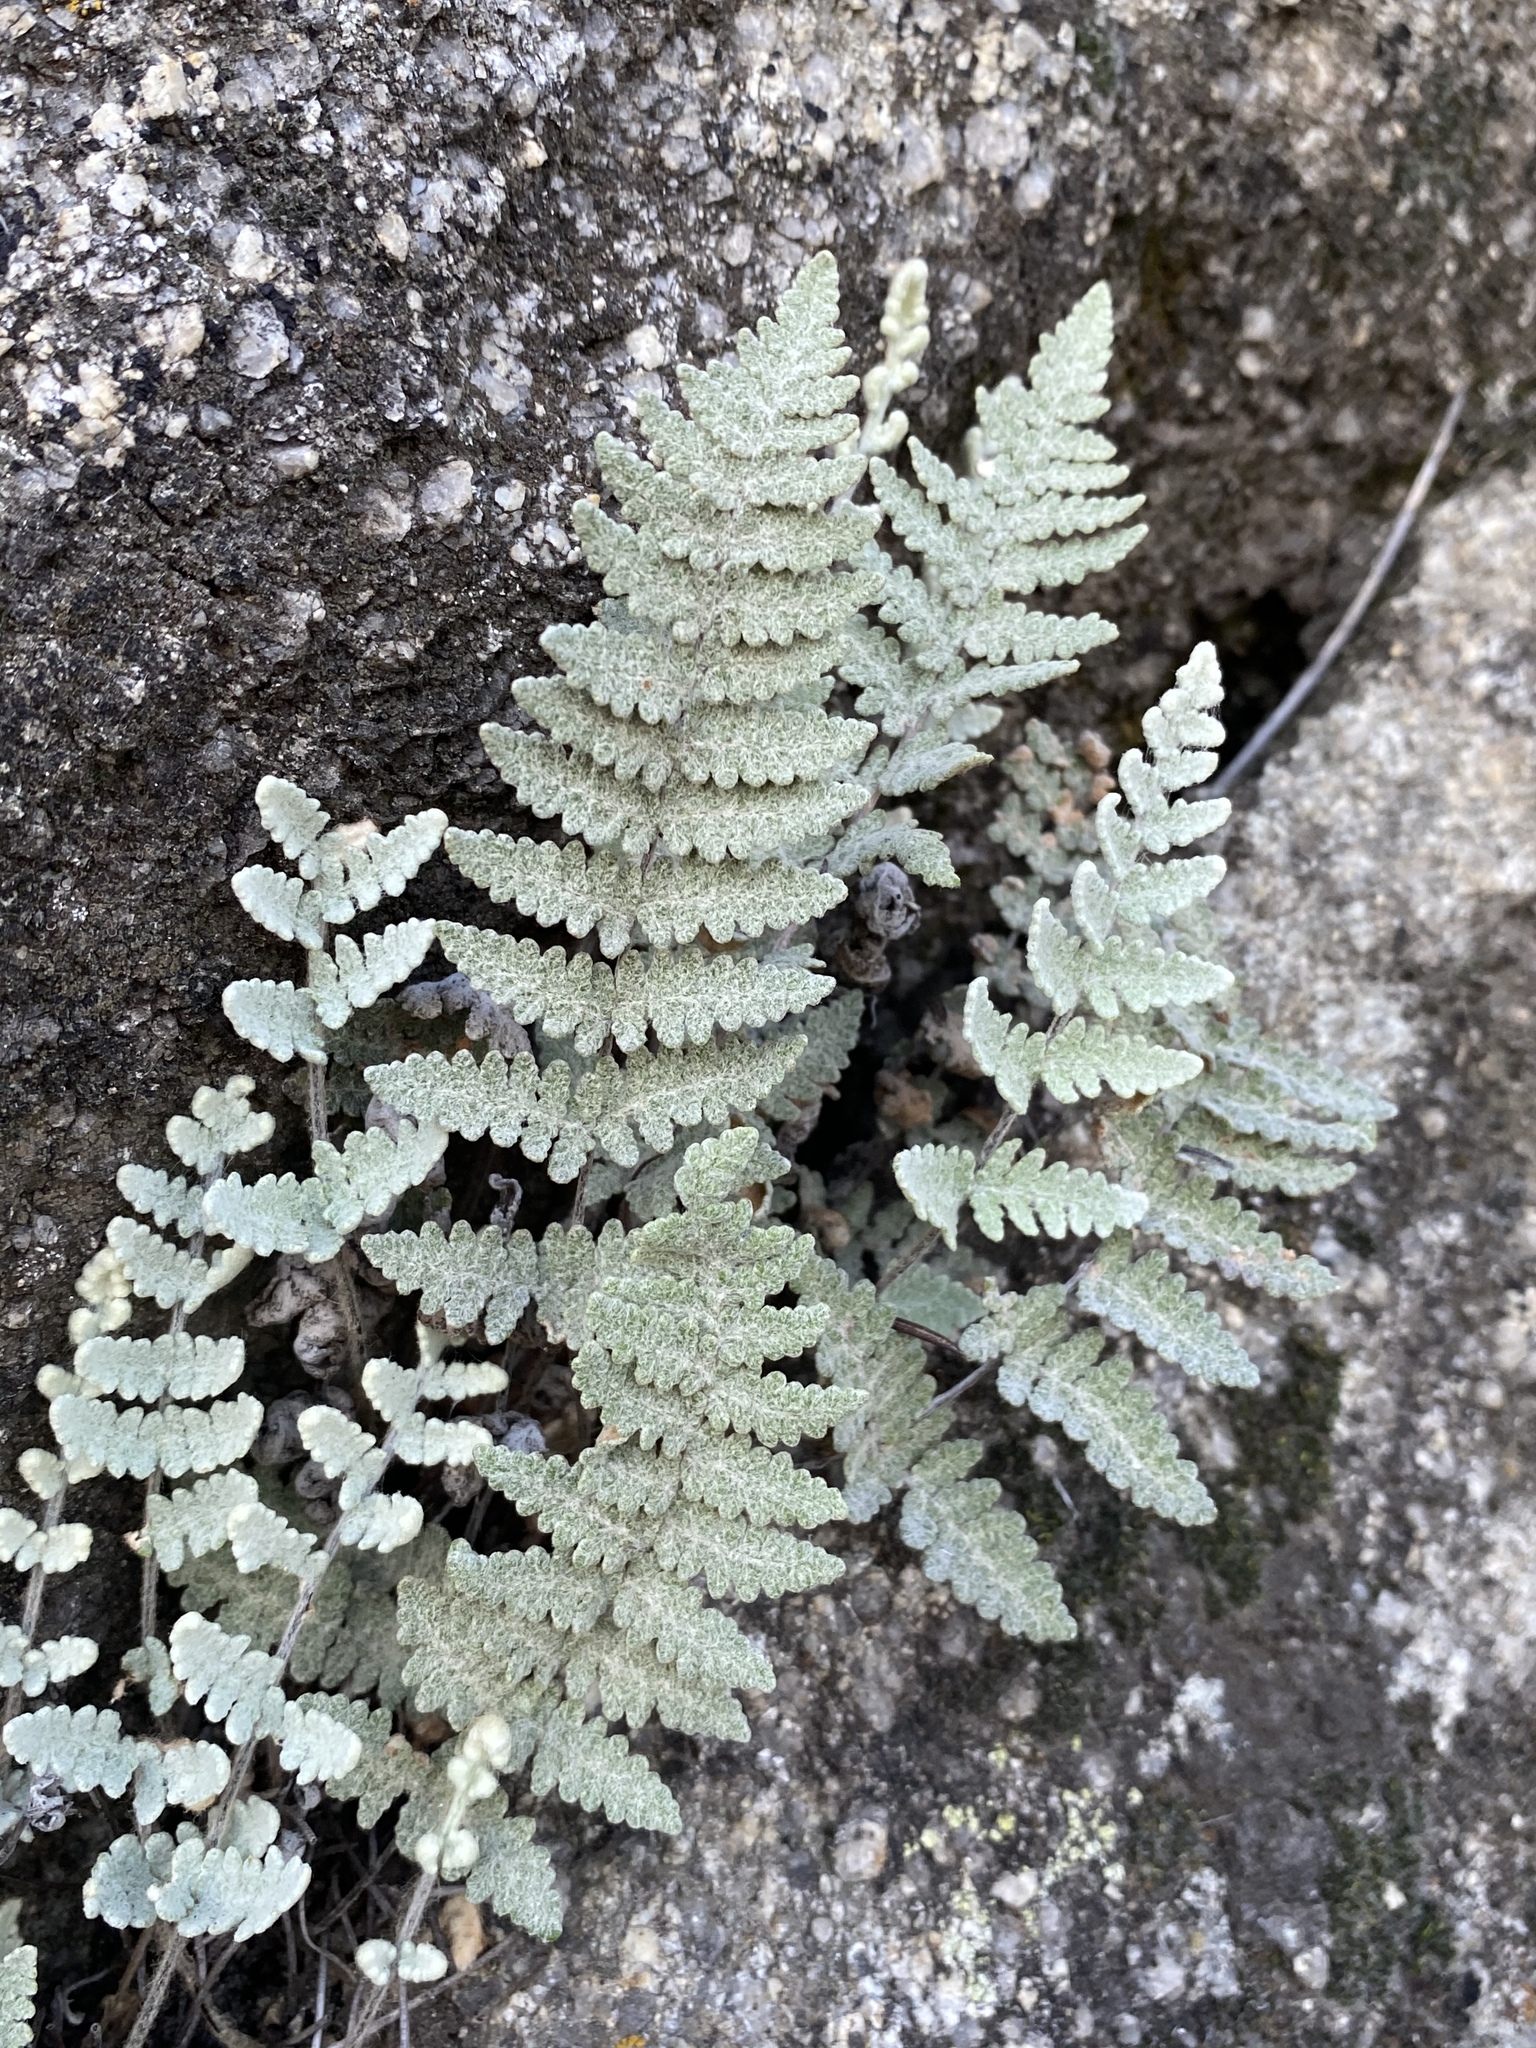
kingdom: Plantae
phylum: Tracheophyta
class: Polypodiopsida
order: Polypodiales
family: Pteridaceae
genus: Myriopteris
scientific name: Myriopteris newberryi
